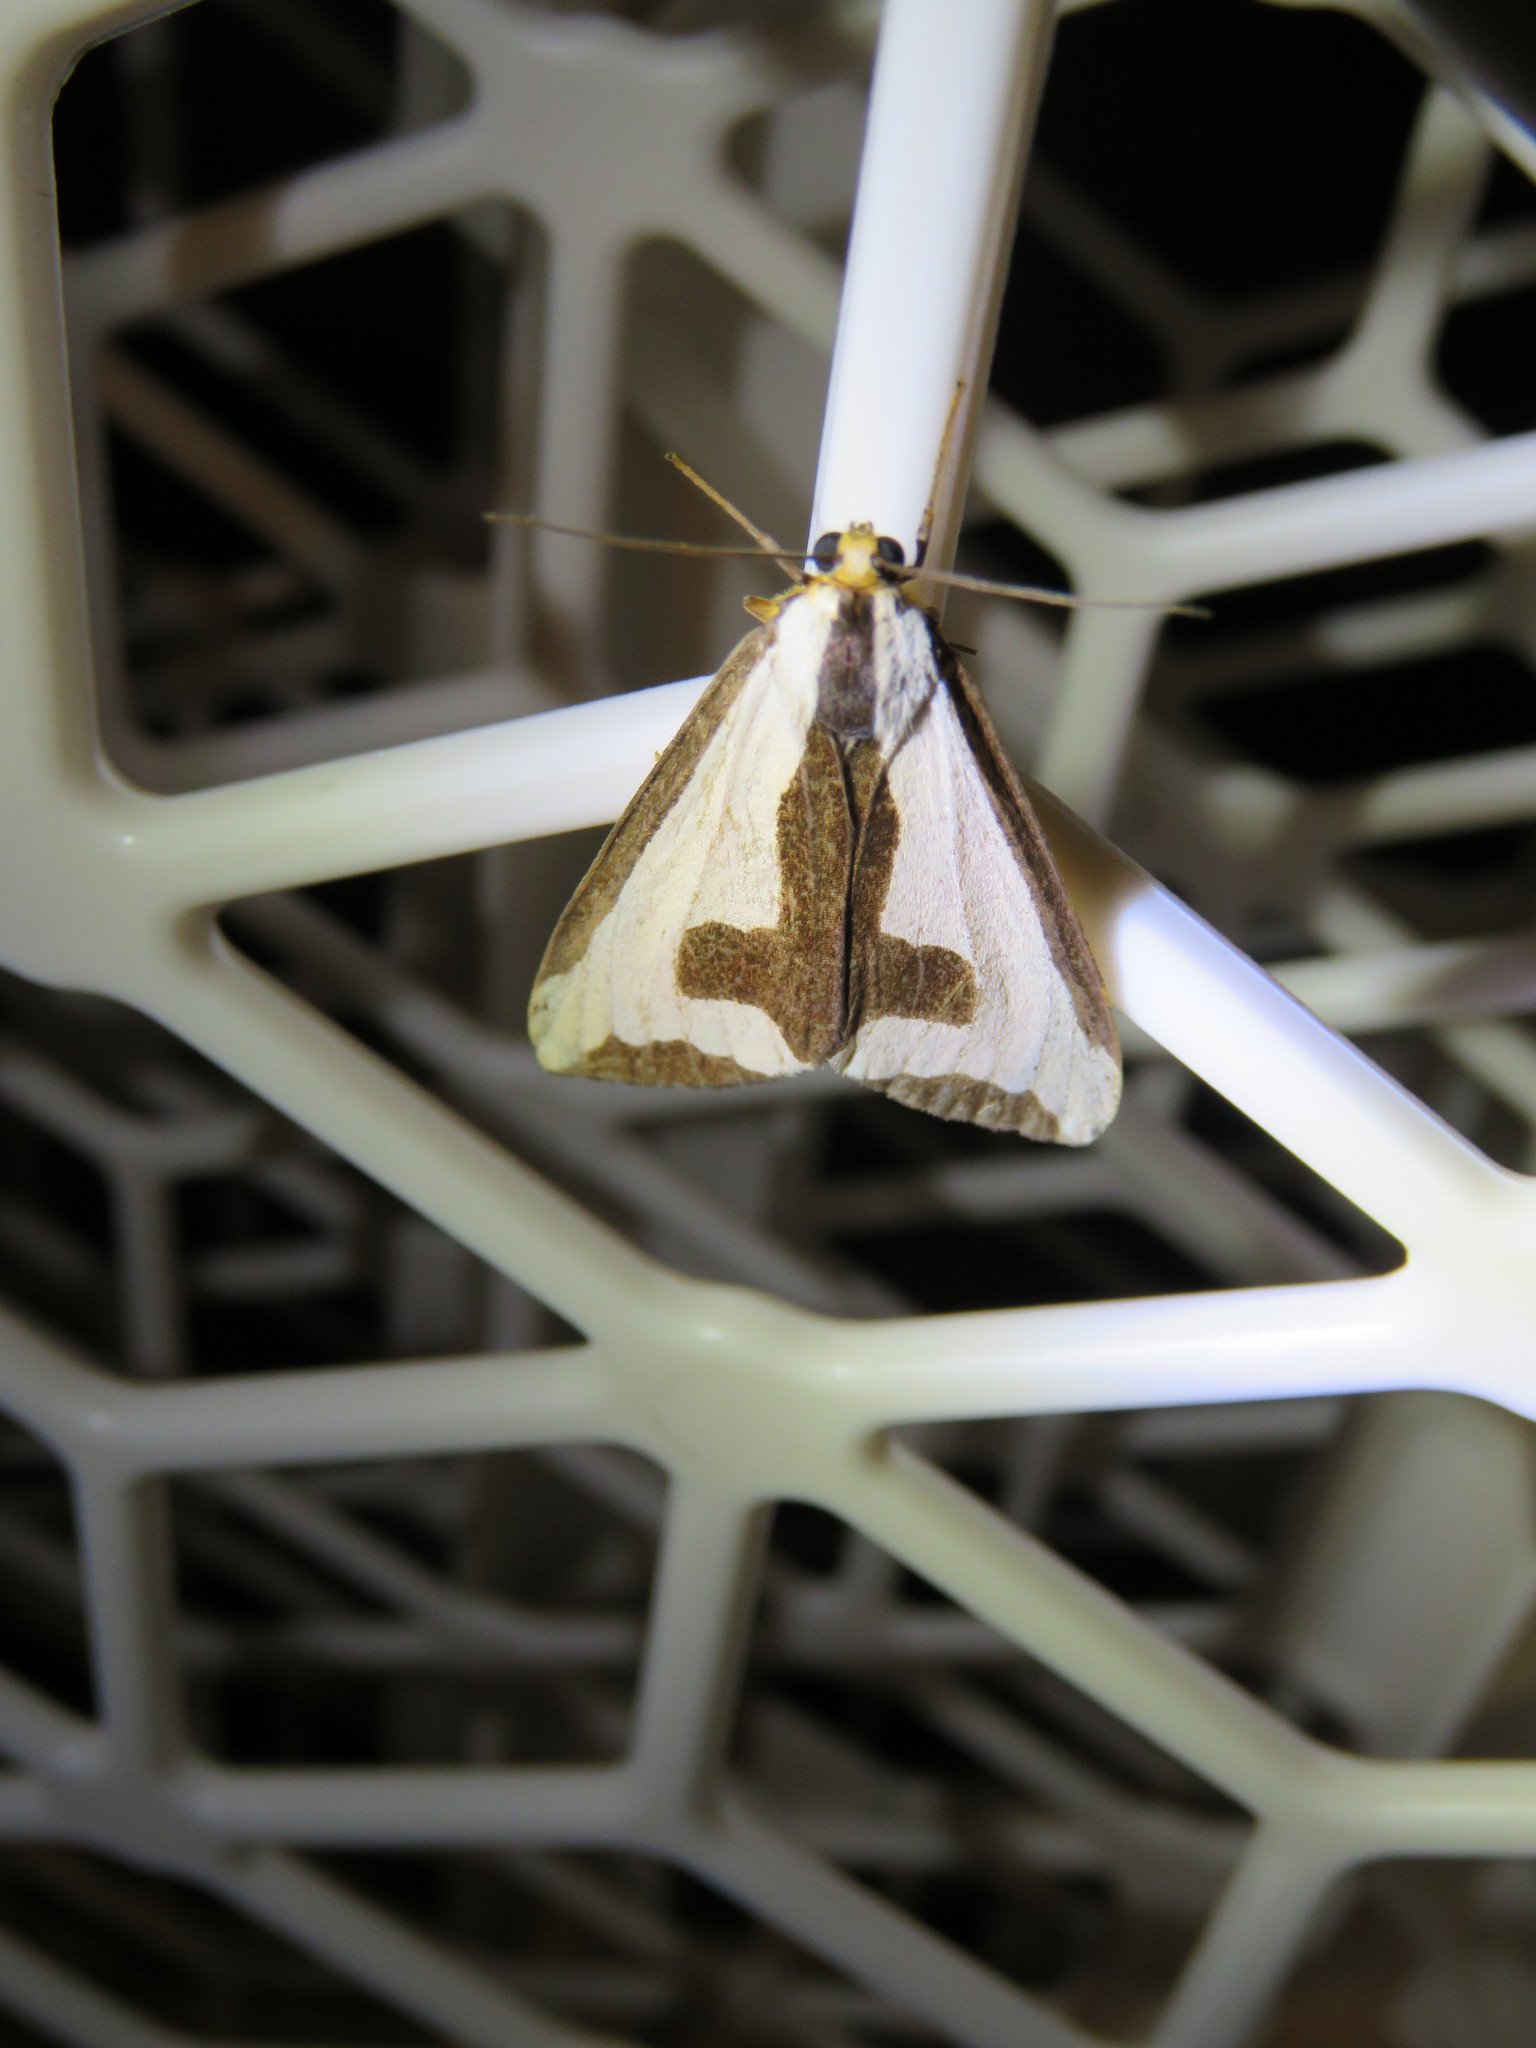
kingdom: Animalia
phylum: Arthropoda
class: Insecta
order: Lepidoptera
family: Erebidae
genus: Haploa
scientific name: Haploa clymene
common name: Clymene moth
